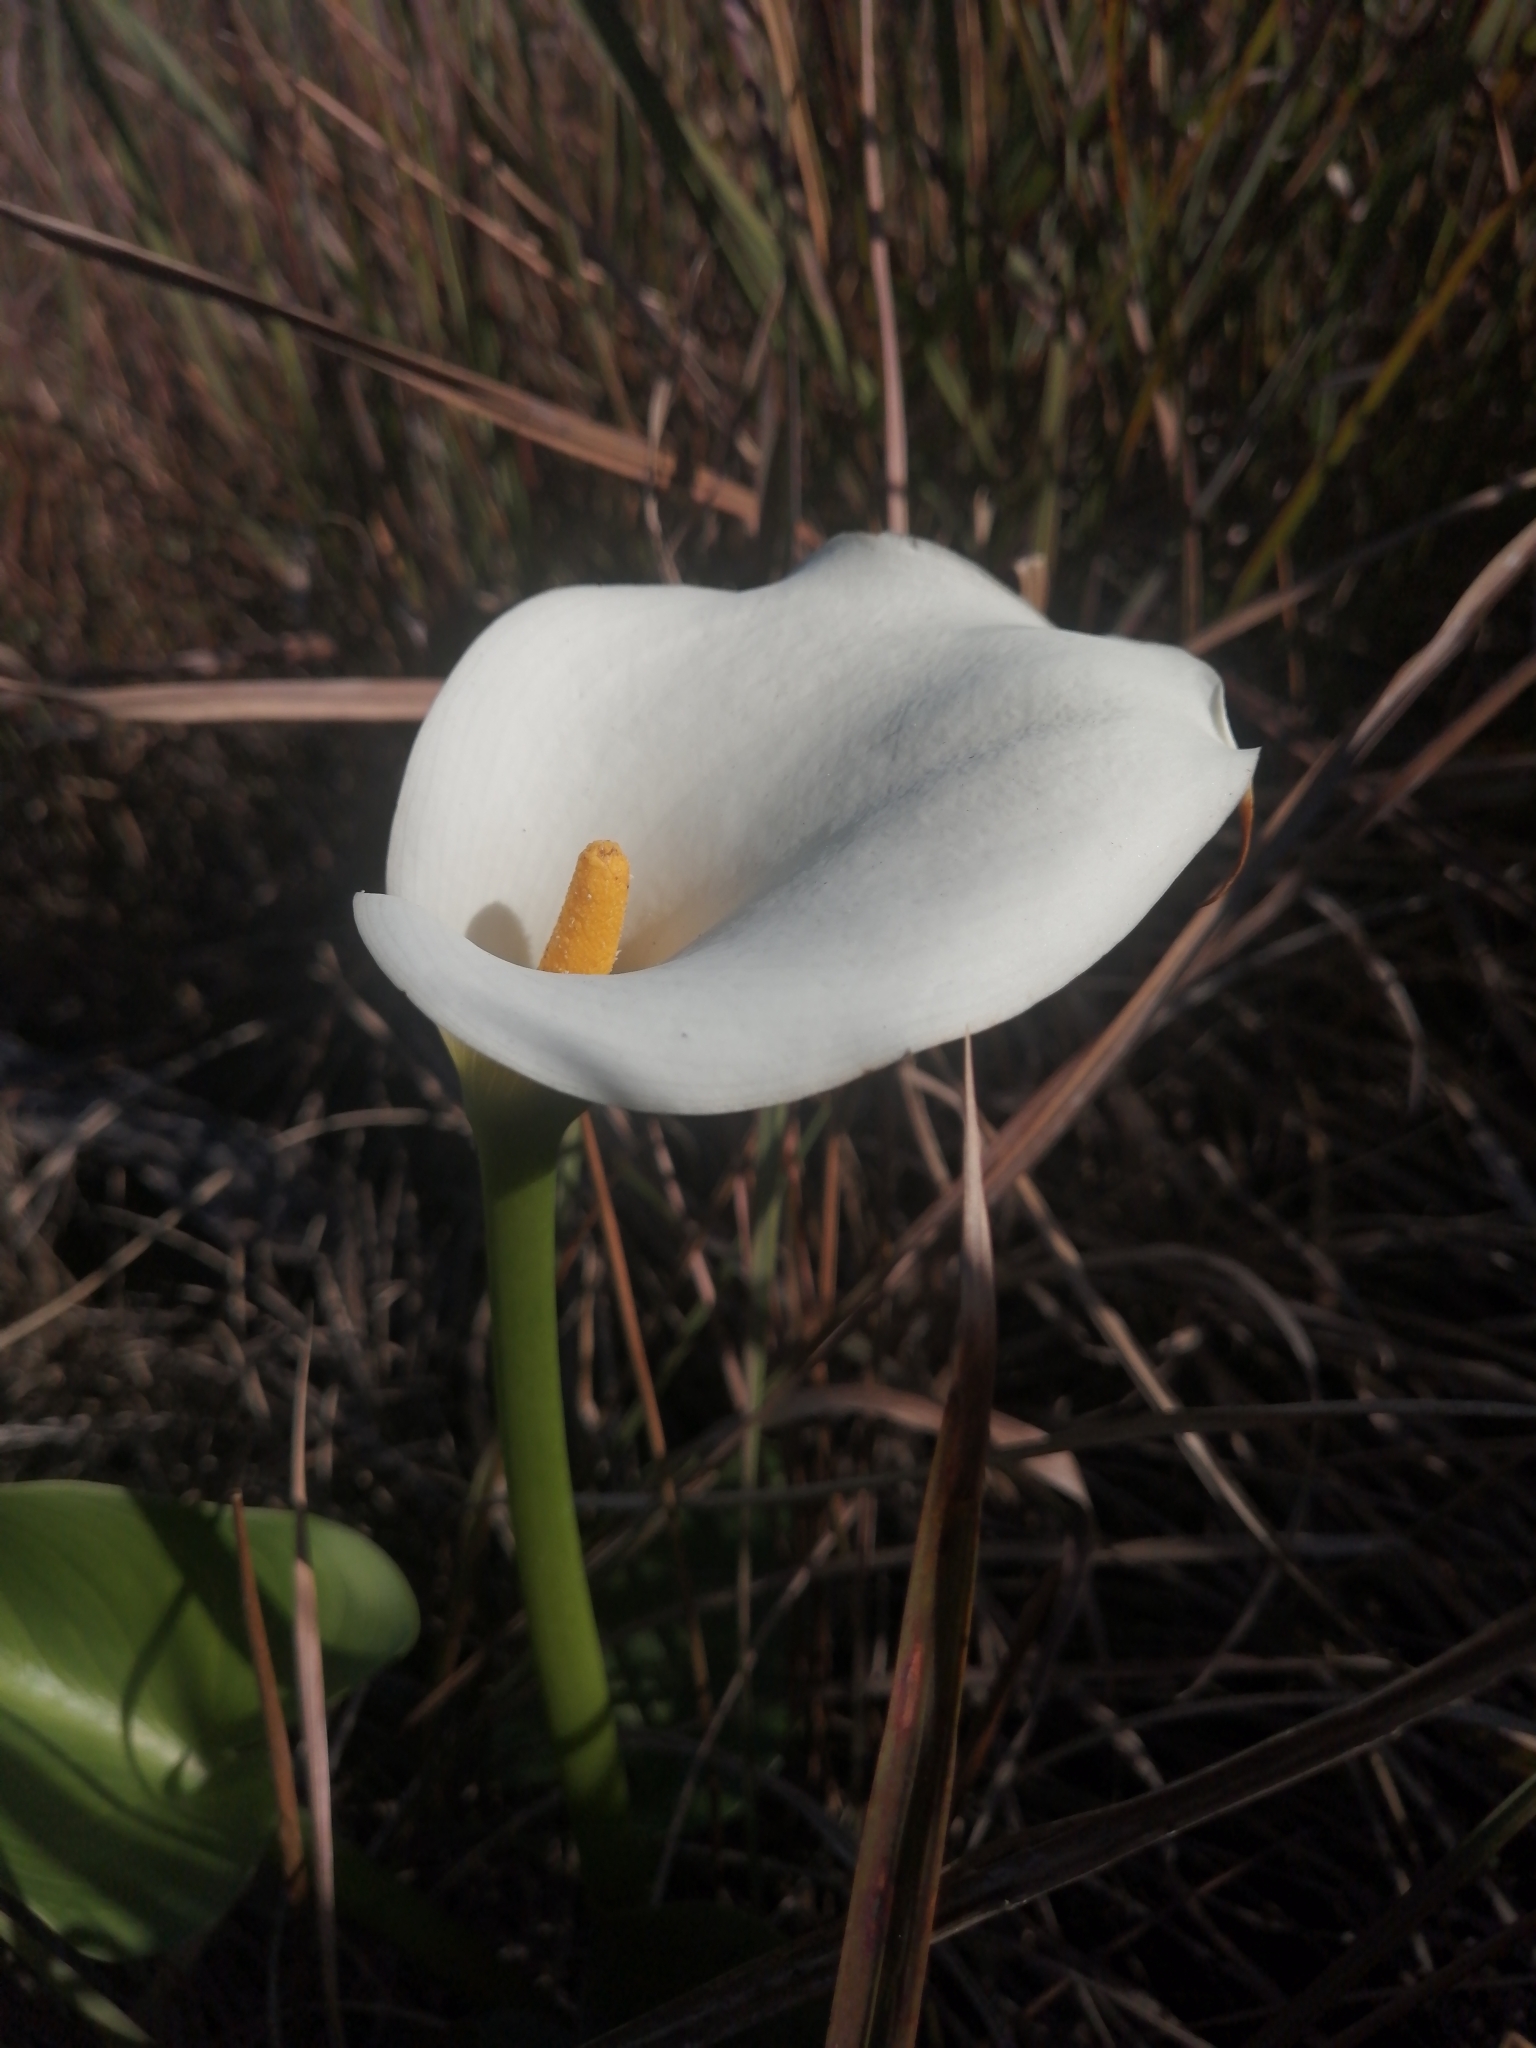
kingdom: Plantae
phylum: Tracheophyta
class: Liliopsida
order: Alismatales
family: Araceae
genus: Zantedeschia
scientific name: Zantedeschia aethiopica
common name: Altar-lily
